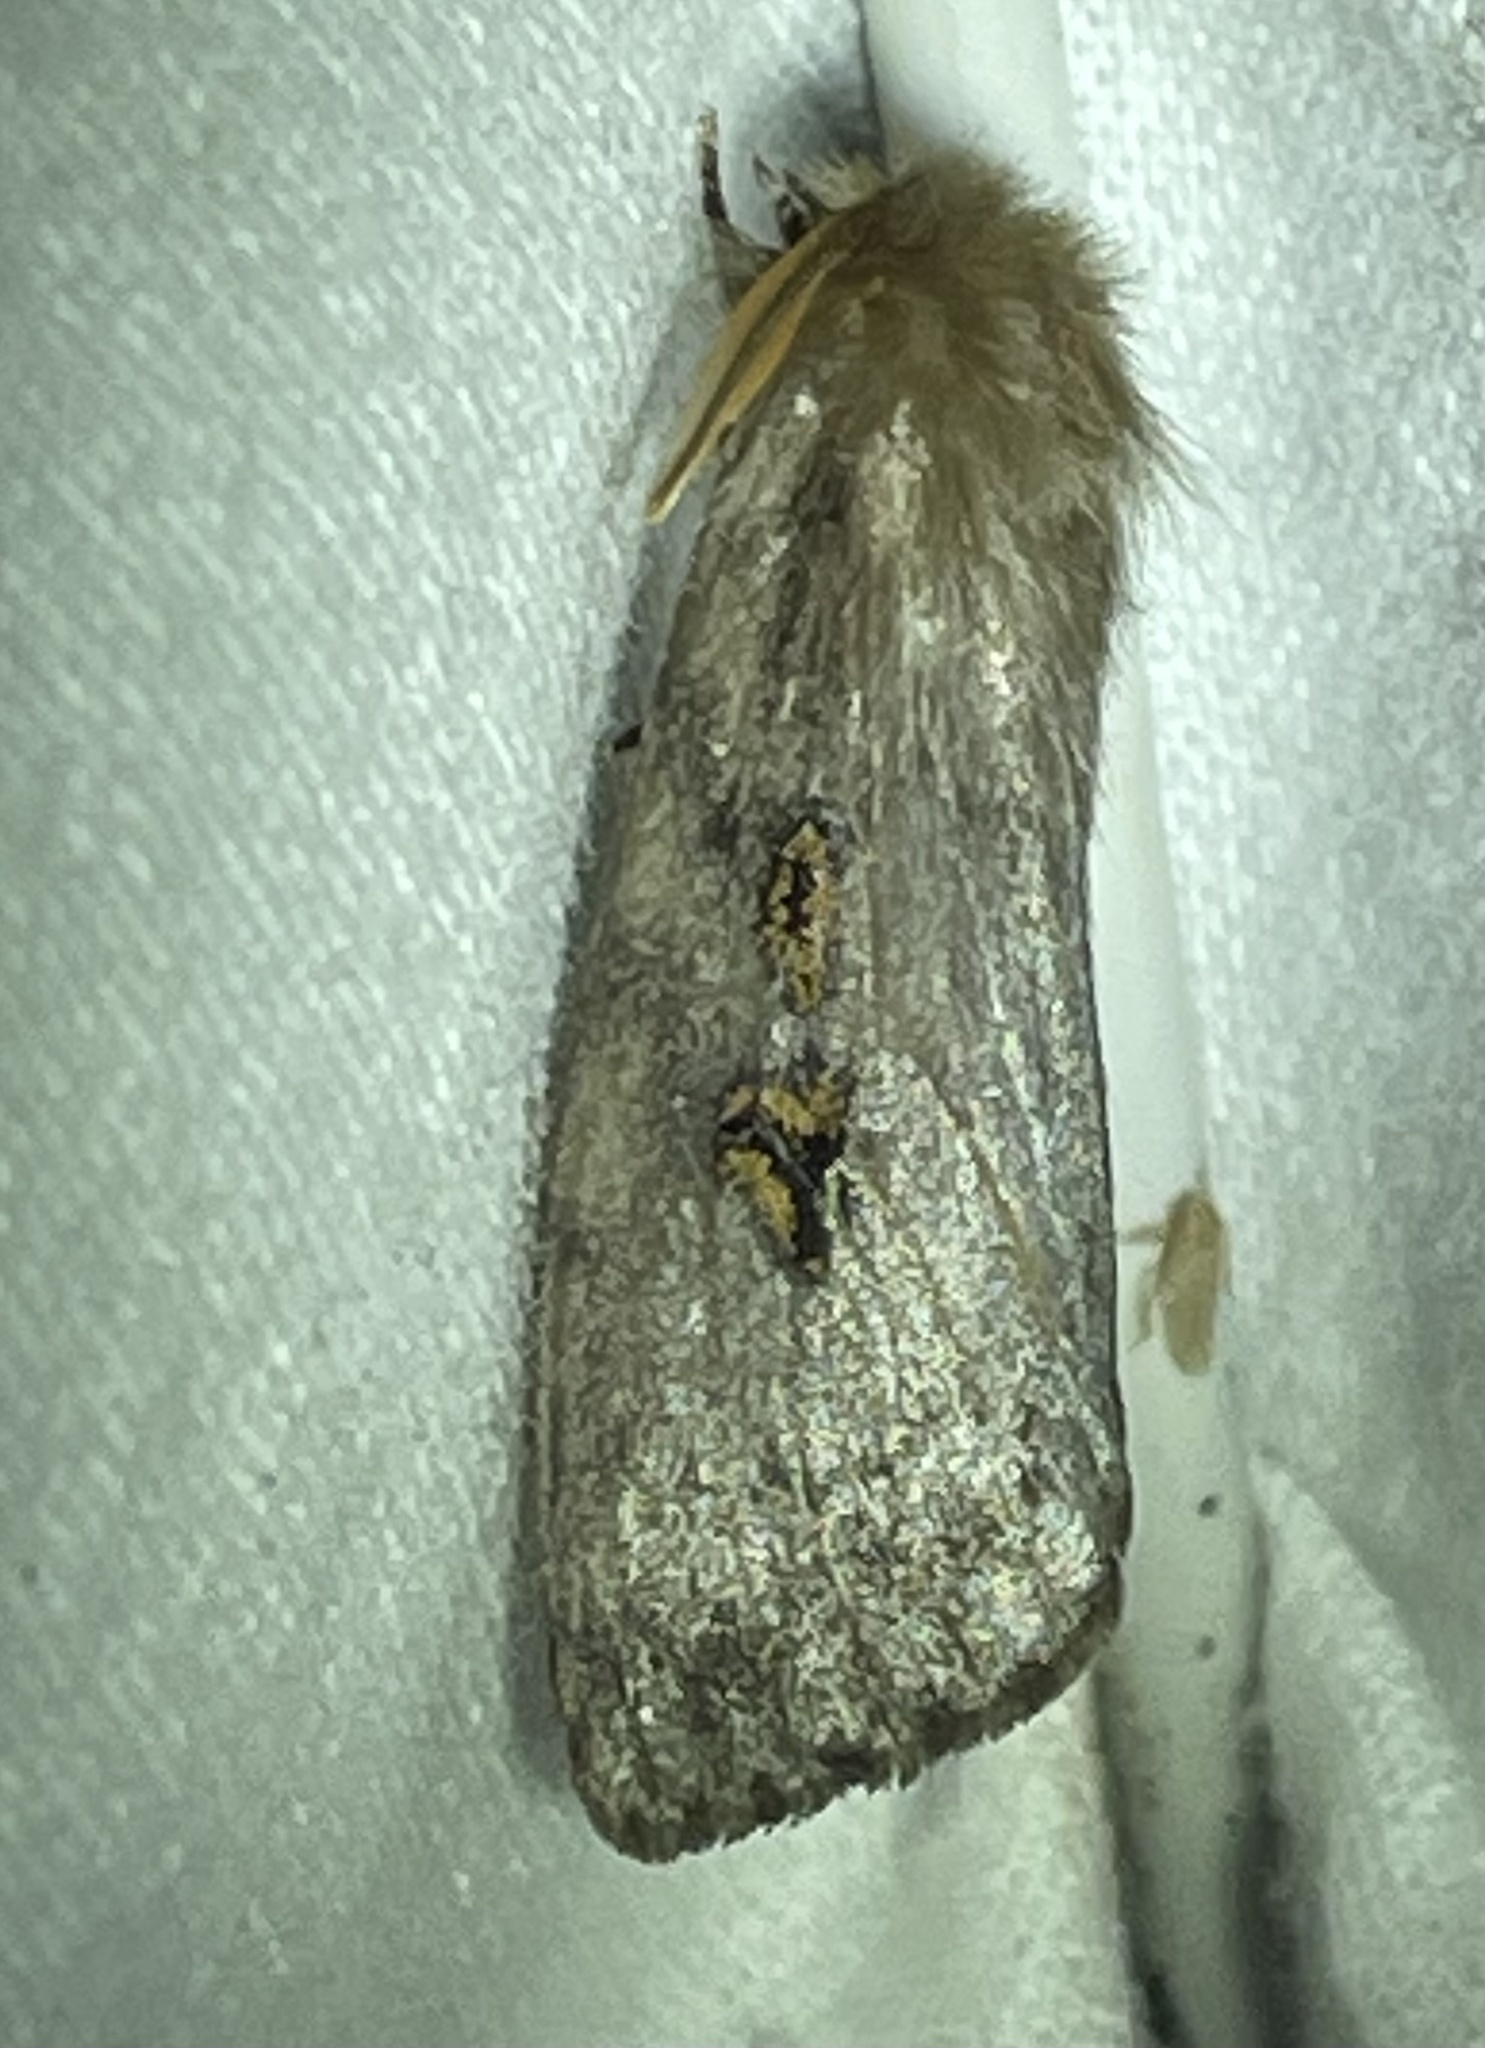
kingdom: Animalia
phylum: Arthropoda
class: Insecta
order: Lepidoptera
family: Erebidae
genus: Leptocneria
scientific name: Leptocneria reducta
